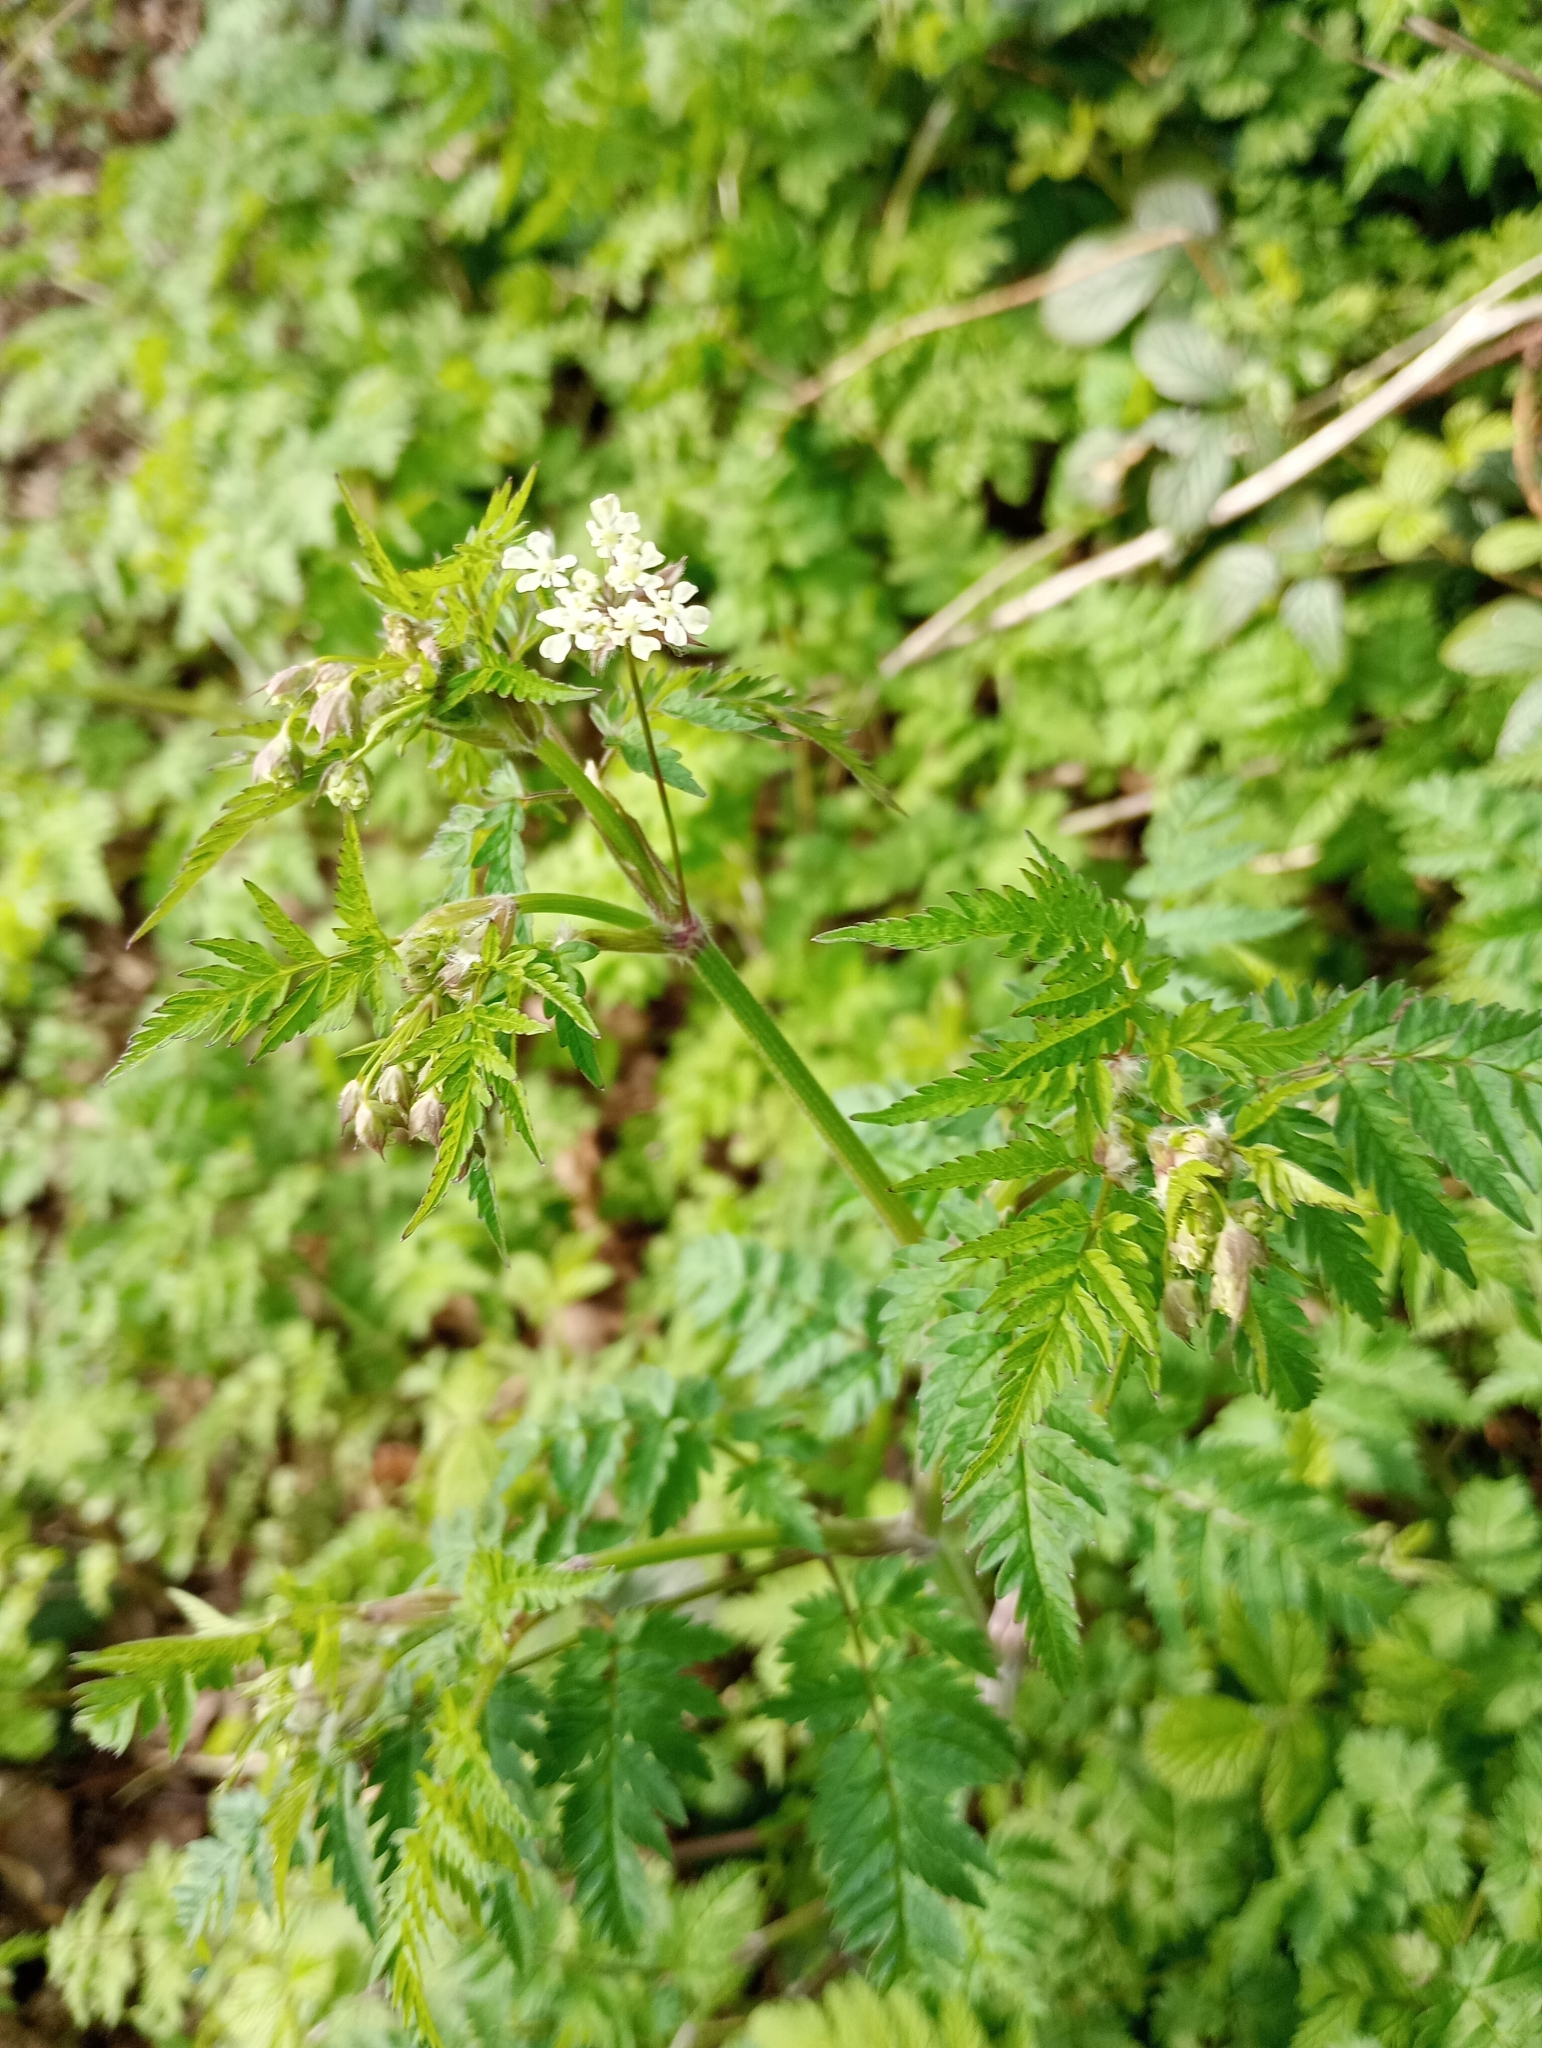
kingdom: Plantae
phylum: Tracheophyta
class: Magnoliopsida
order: Apiales
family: Apiaceae
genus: Anthriscus
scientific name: Anthriscus sylvestris
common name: Cow parsley
